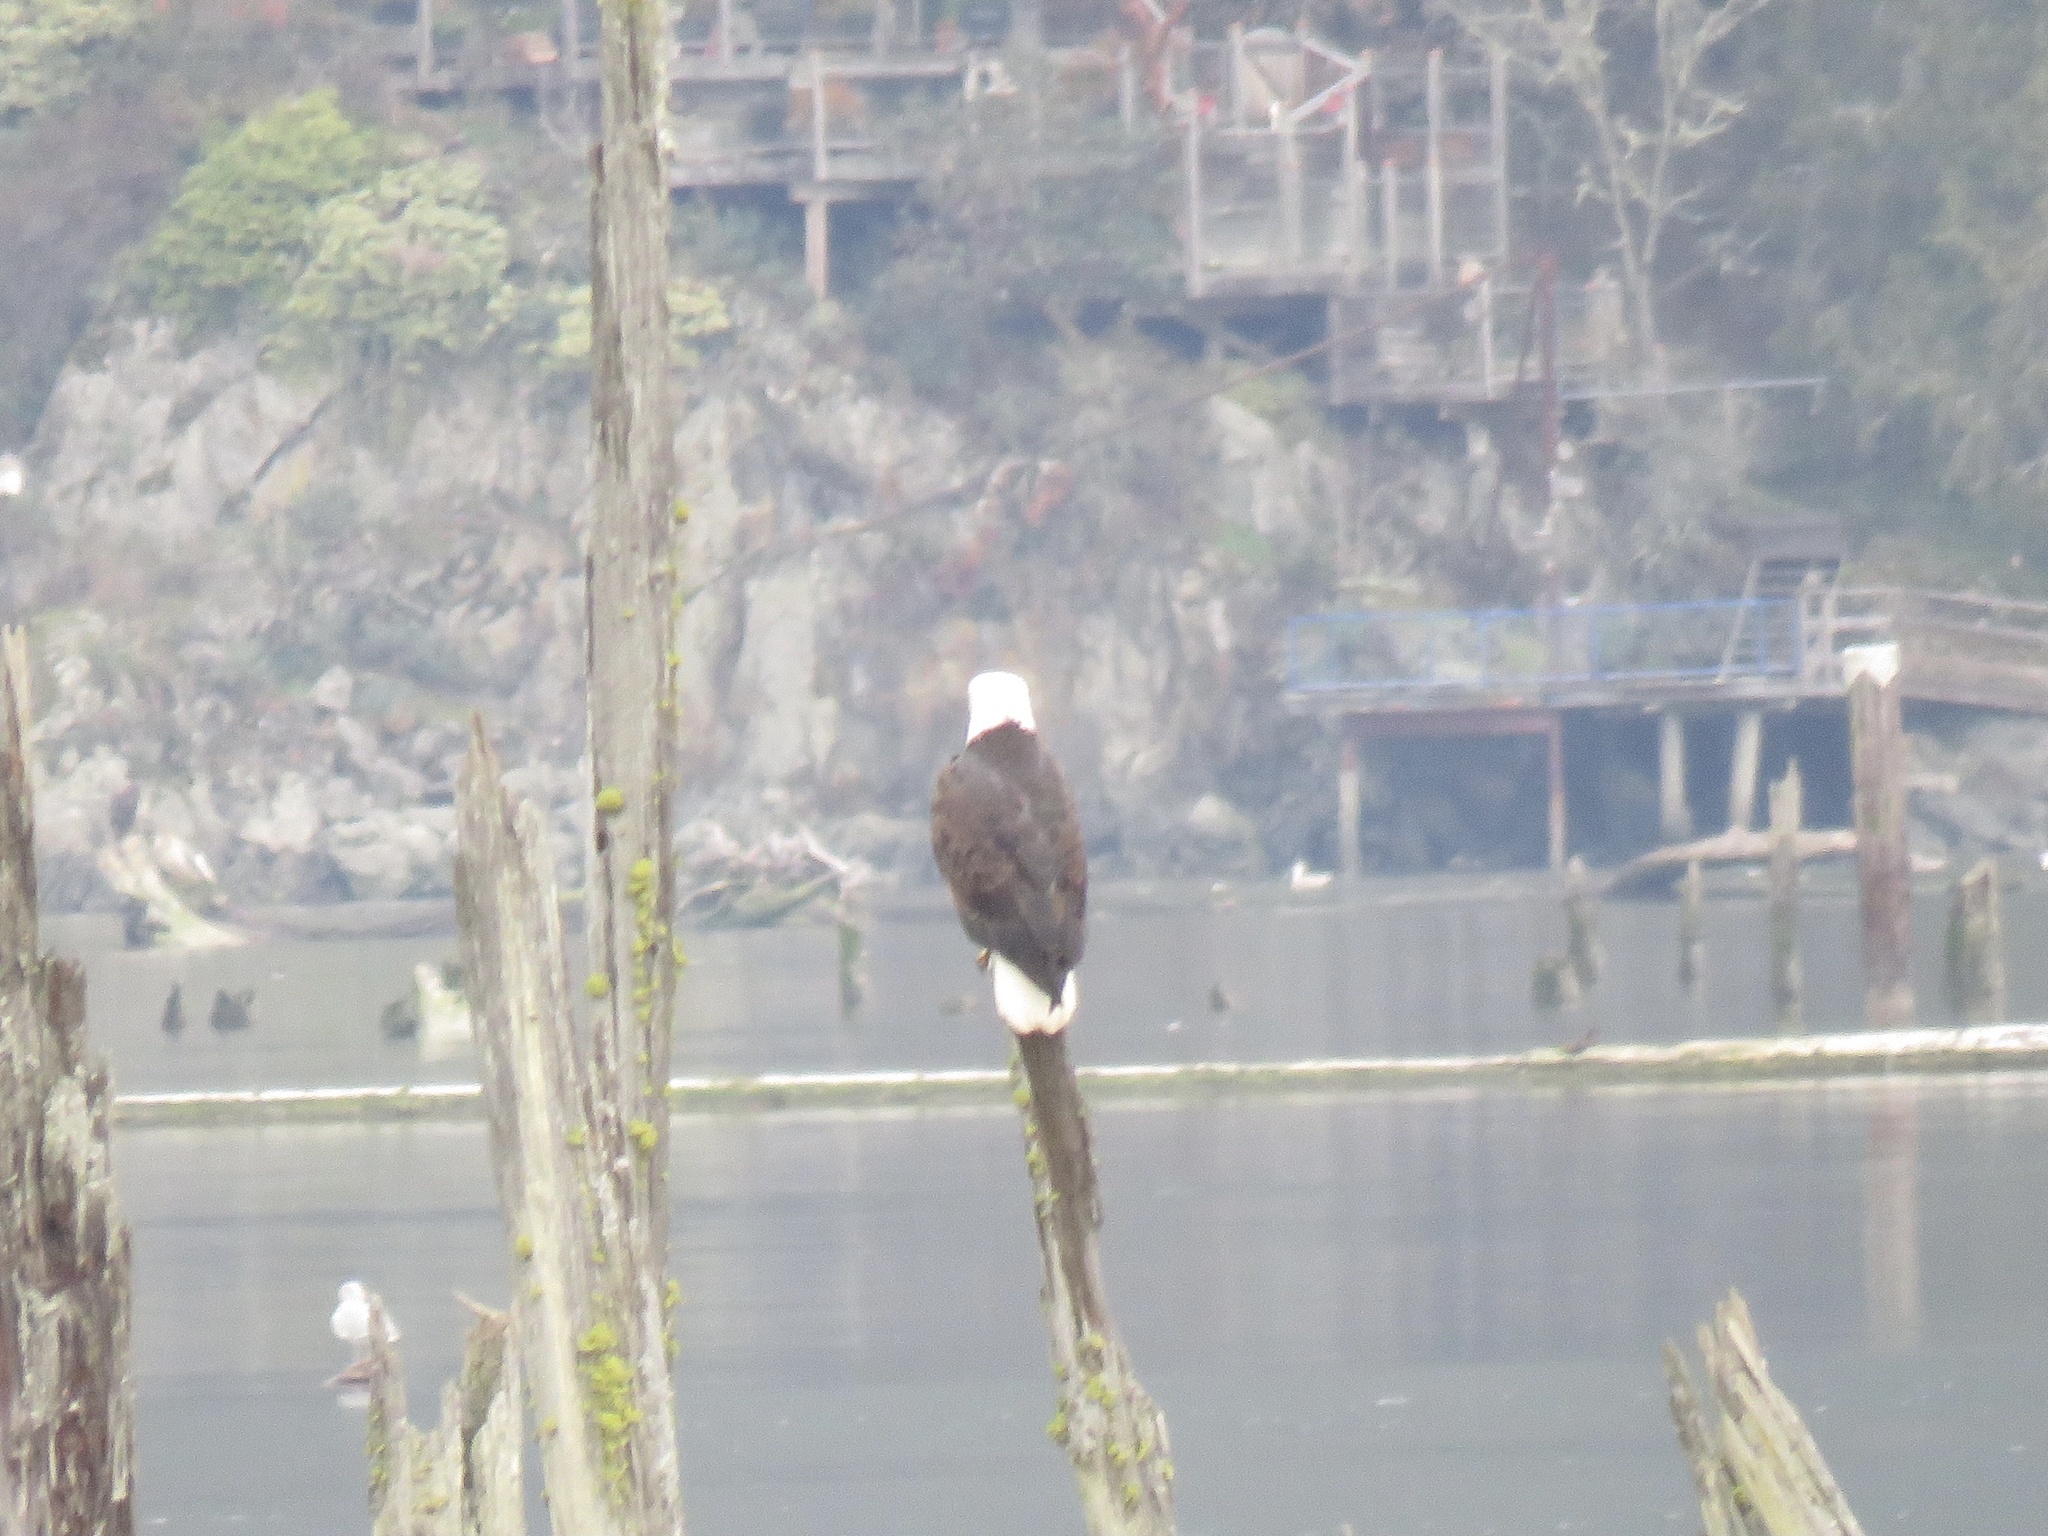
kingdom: Animalia
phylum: Chordata
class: Aves
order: Accipitriformes
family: Accipitridae
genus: Haliaeetus
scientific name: Haliaeetus leucocephalus
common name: Bald eagle
